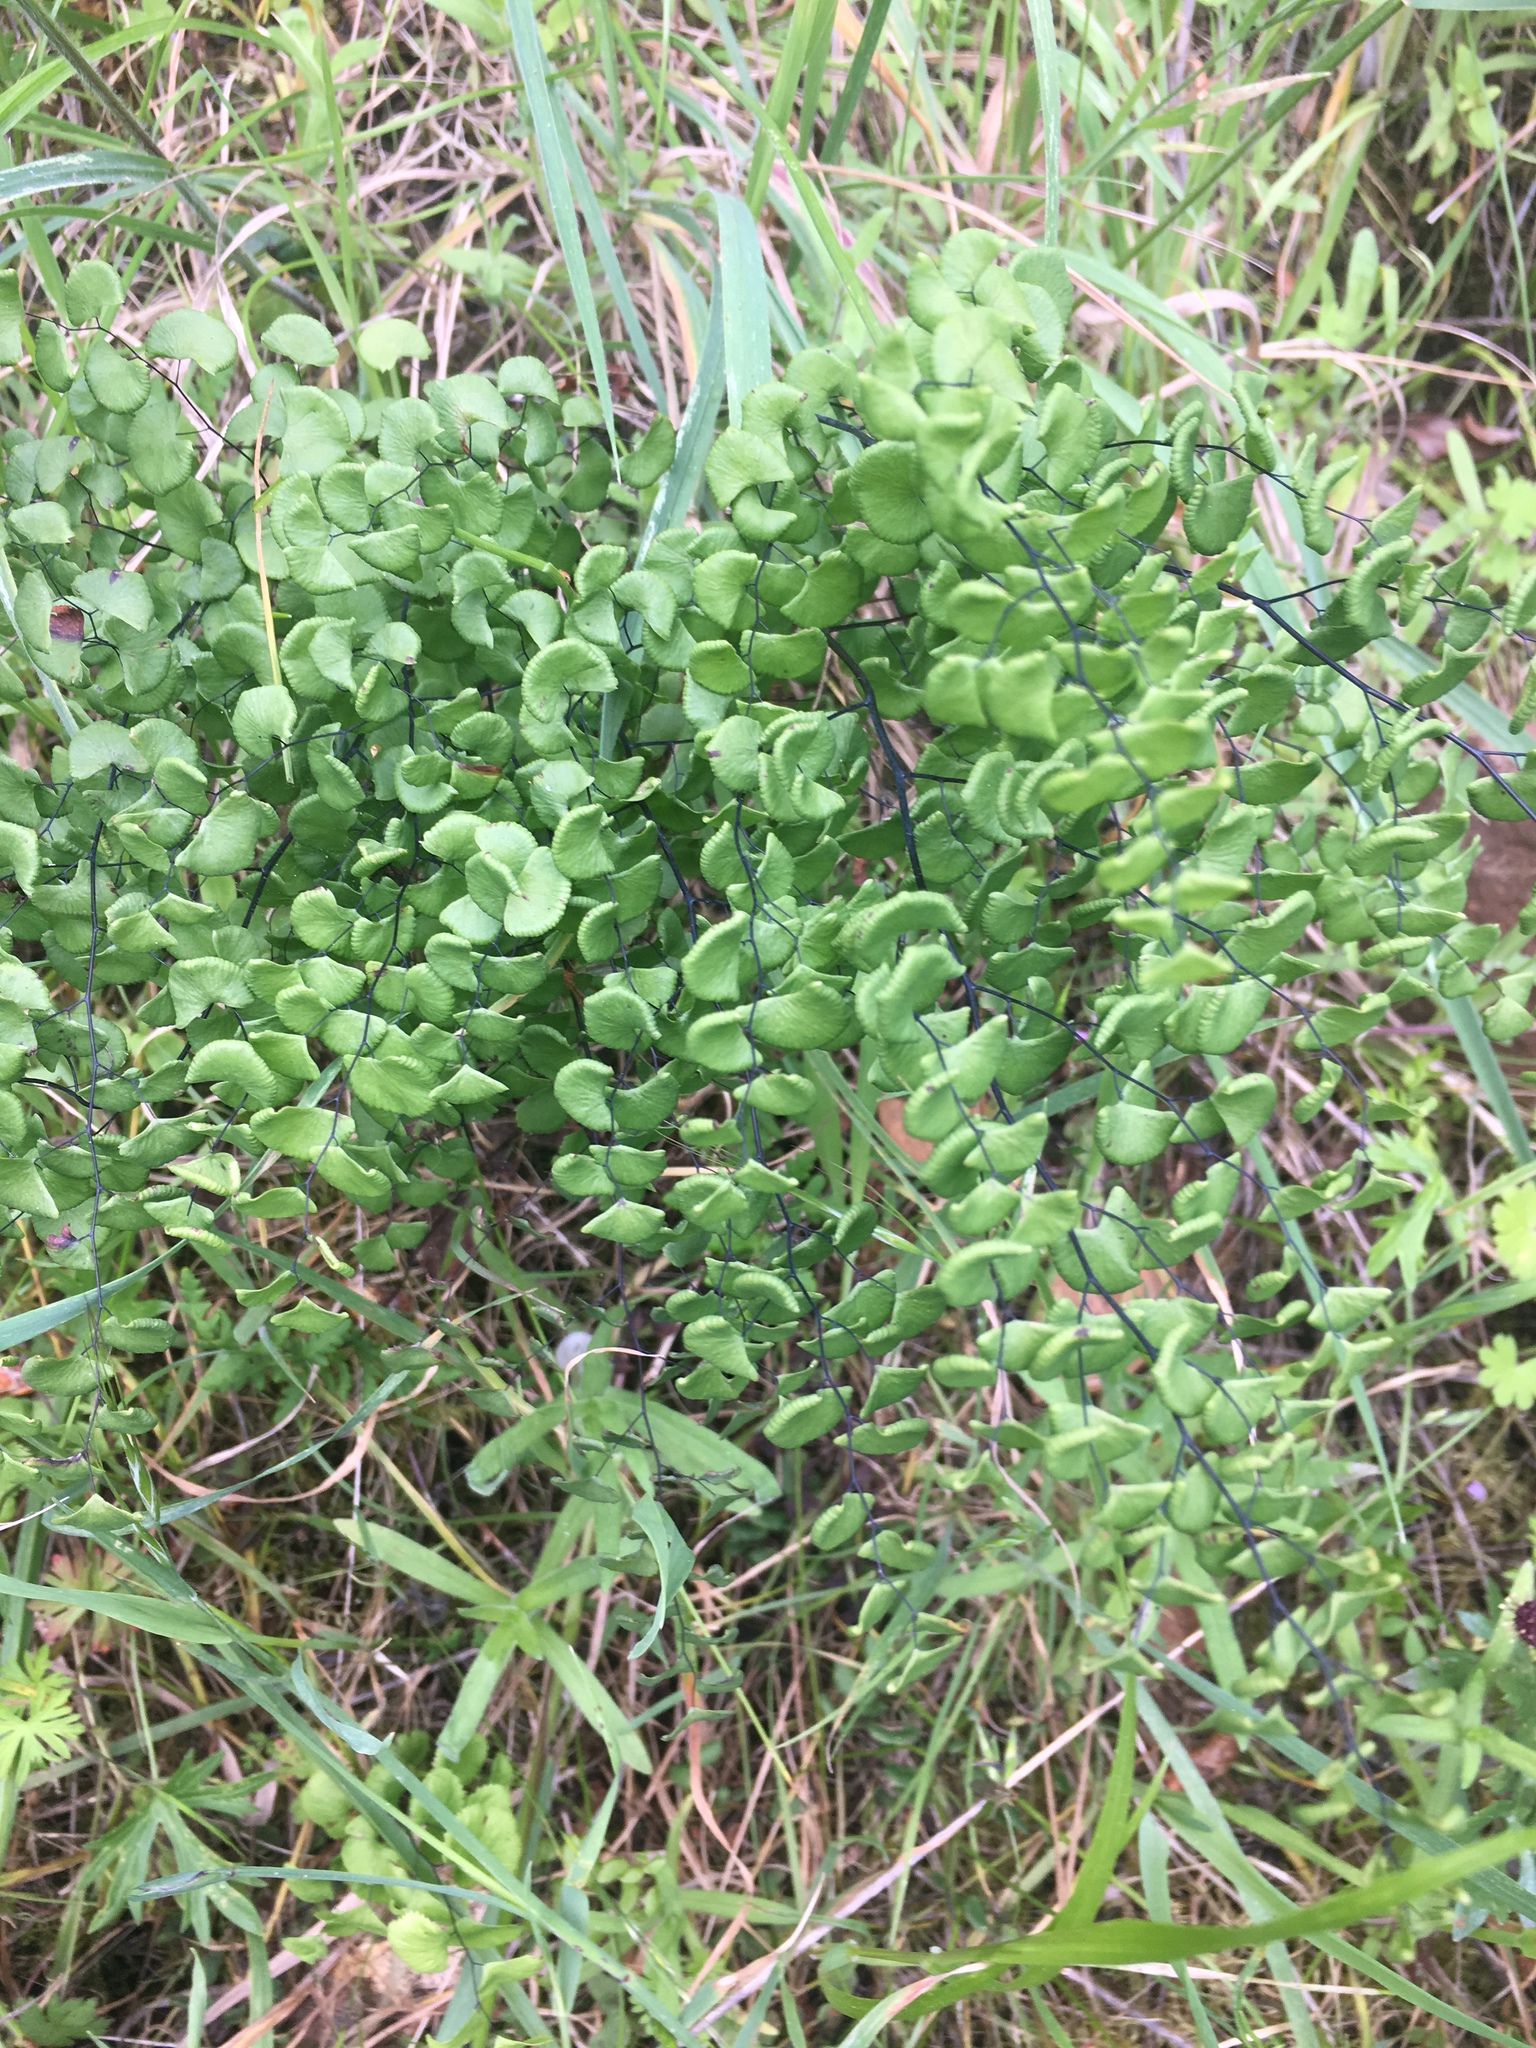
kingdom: Plantae
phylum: Tracheophyta
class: Polypodiopsida
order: Polypodiales
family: Pteridaceae
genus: Adiantum
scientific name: Adiantum jordanii
